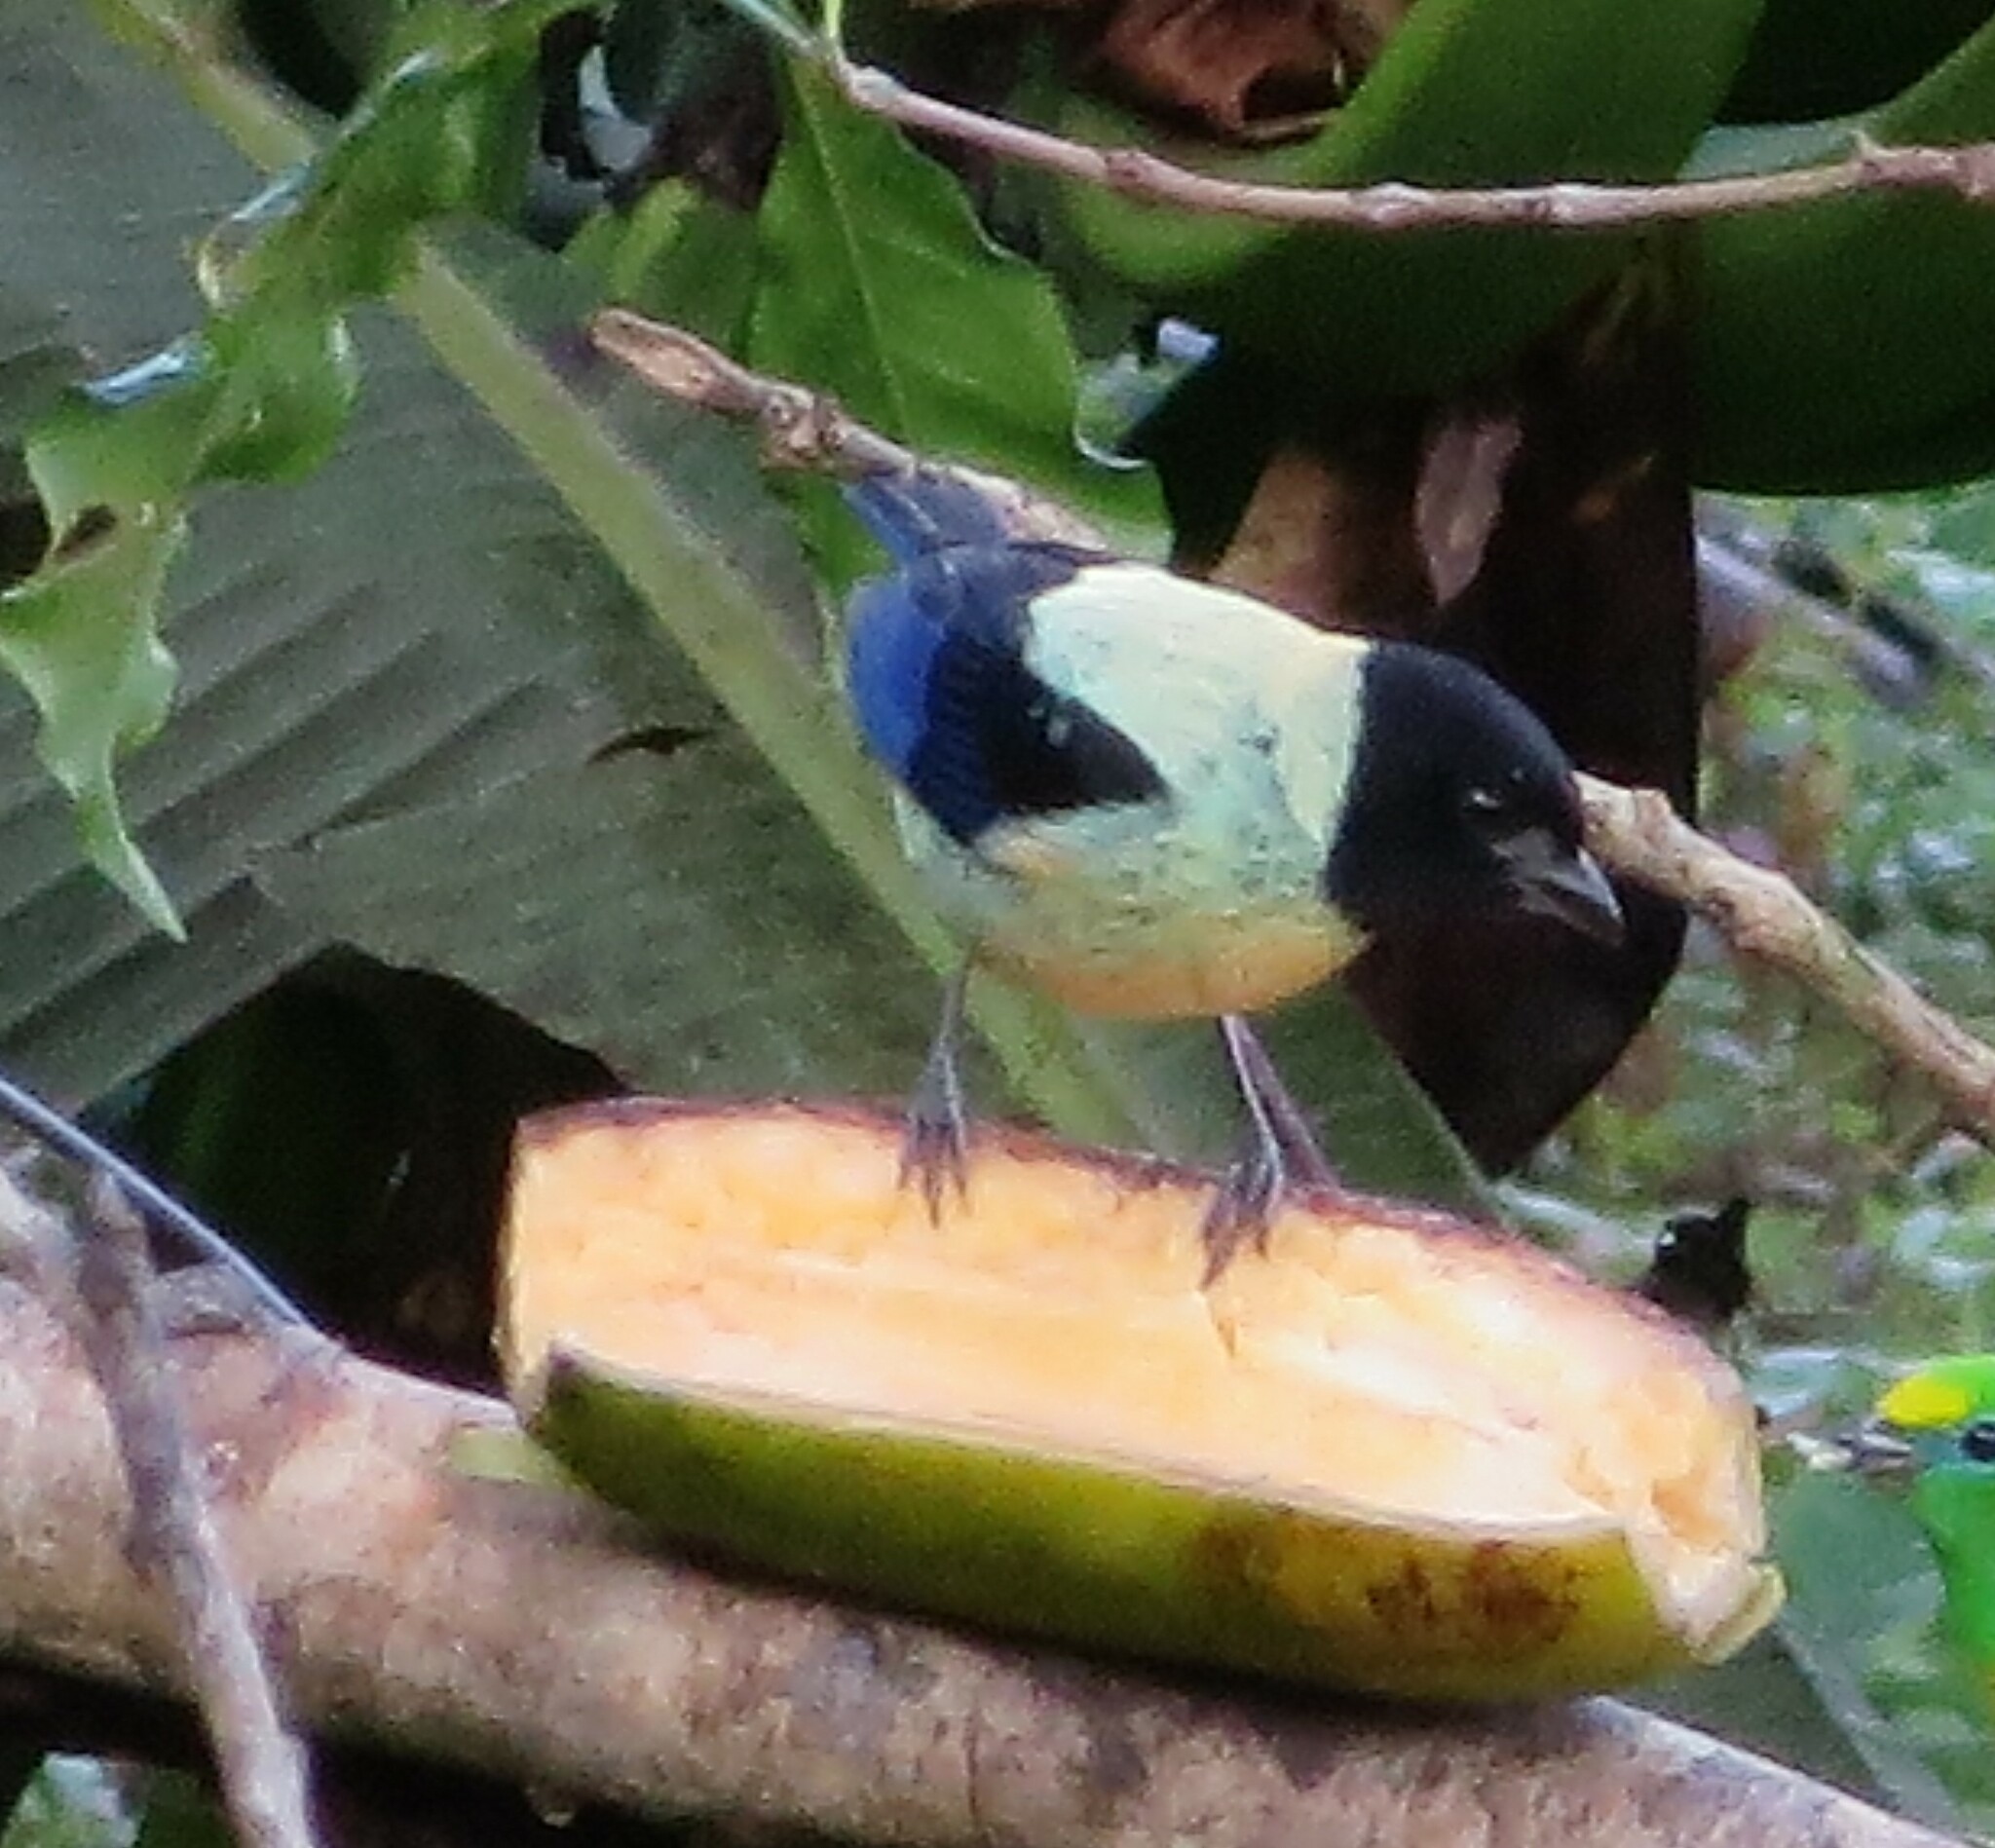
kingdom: Animalia
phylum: Chordata
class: Aves
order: Passeriformes
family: Thraupidae
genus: Stilpnia
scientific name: Stilpnia cyanoptera
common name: Black-headed tanager
